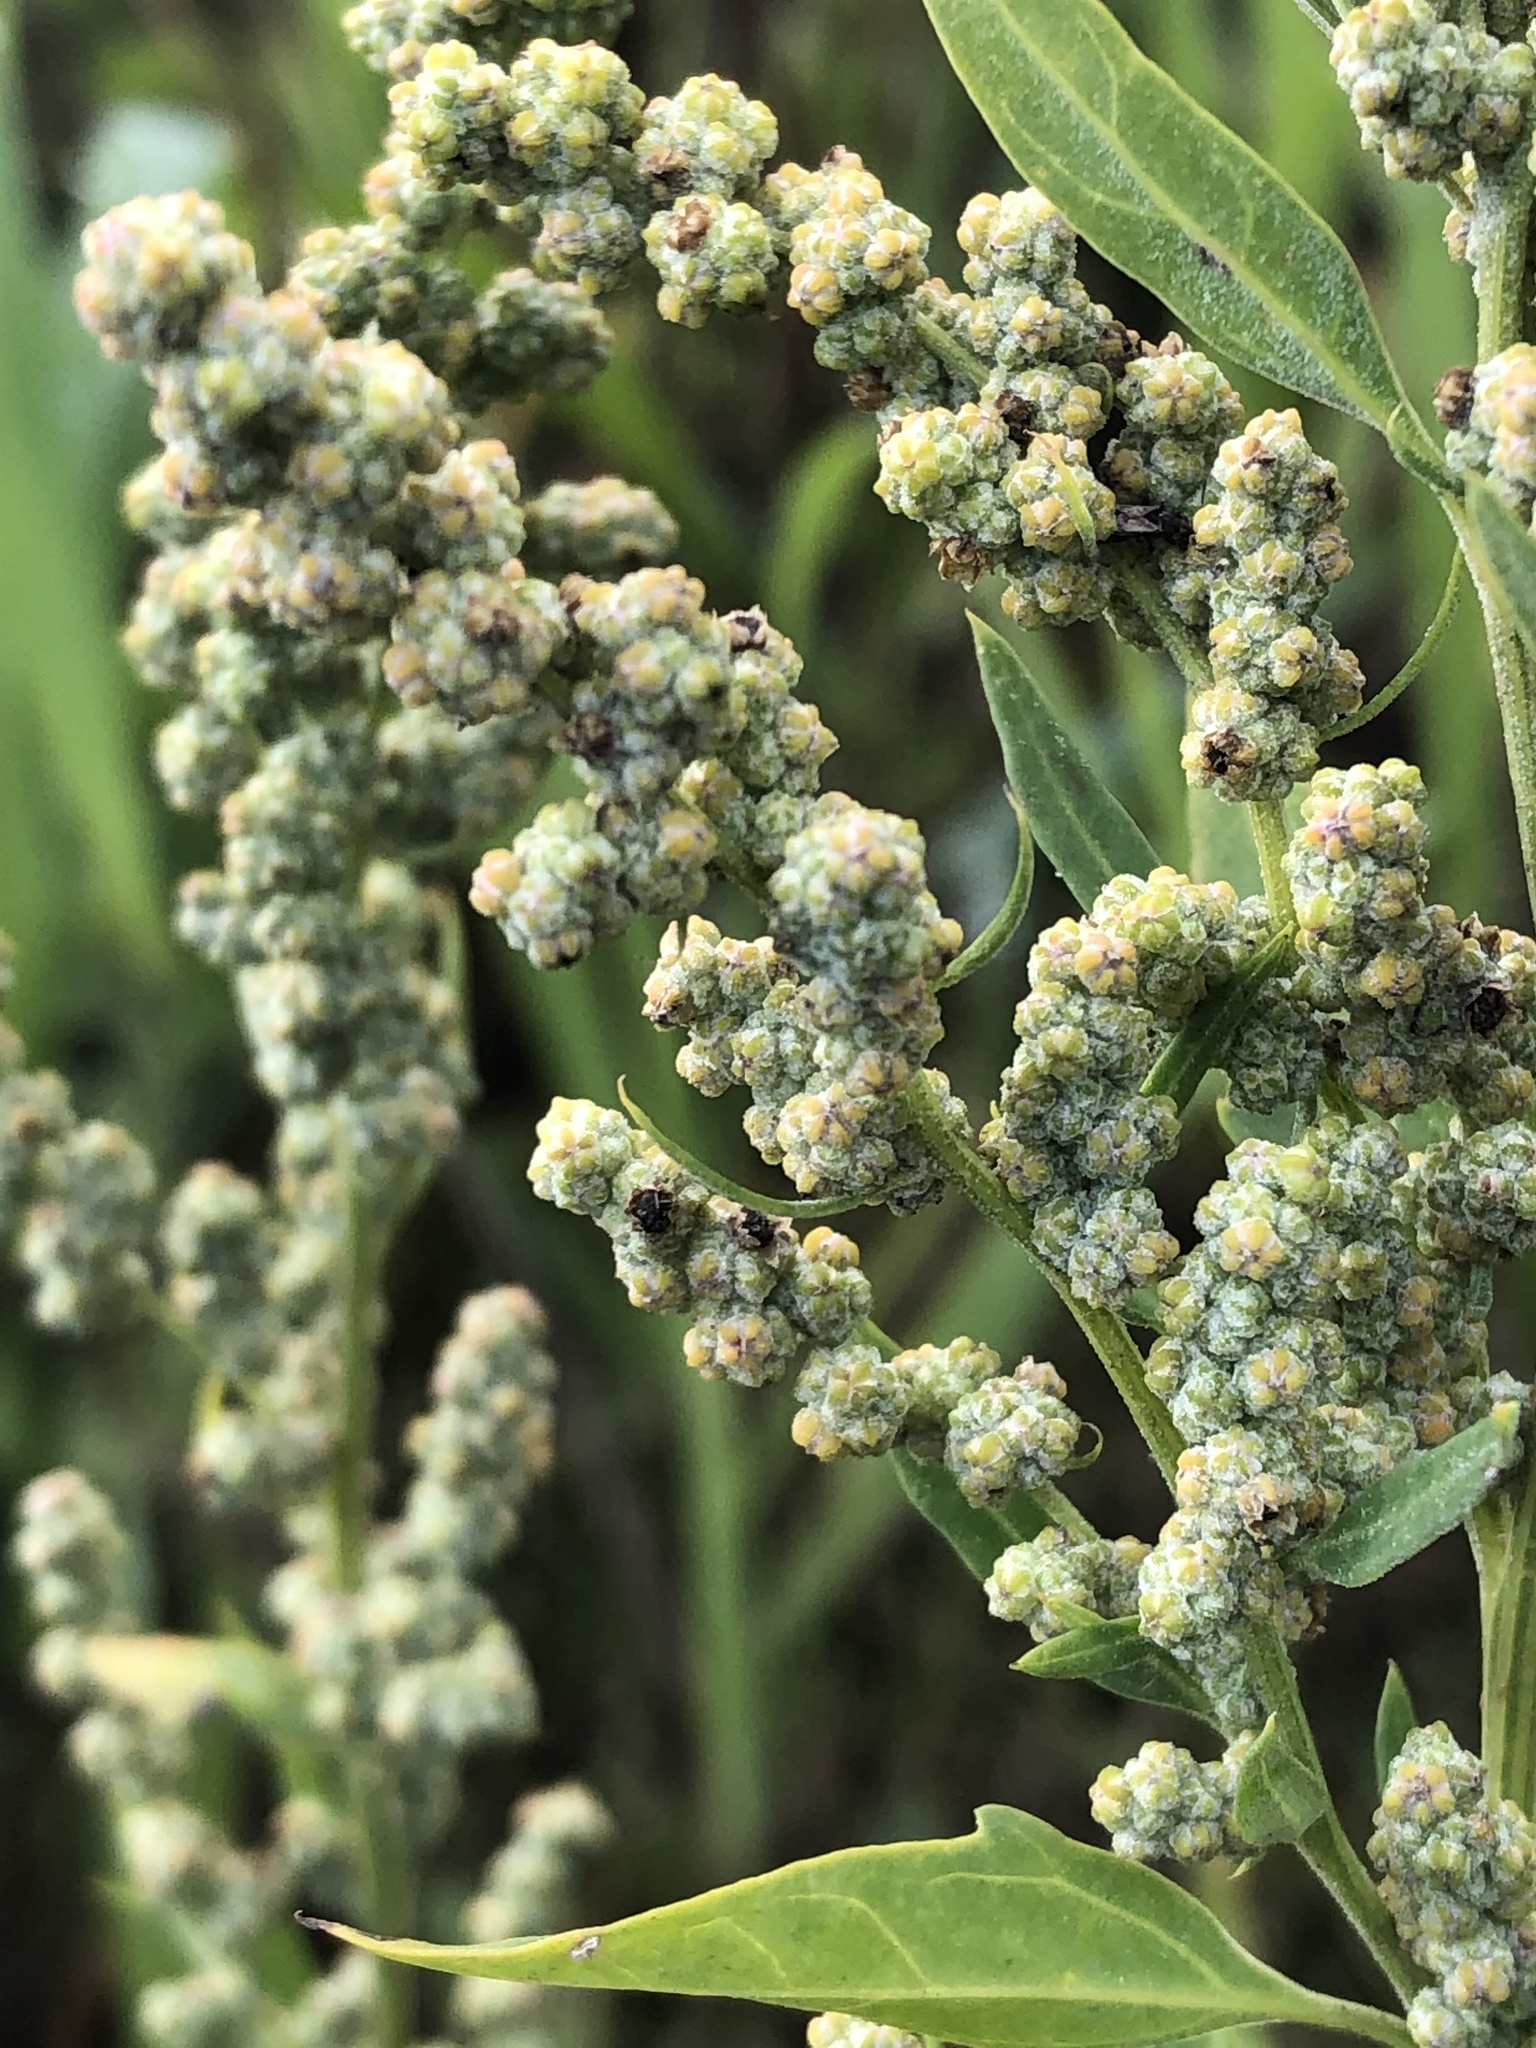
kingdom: Plantae
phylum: Tracheophyta
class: Magnoliopsida
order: Caryophyllales
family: Amaranthaceae
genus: Chenopodium
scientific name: Chenopodium album
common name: Fat-hen
